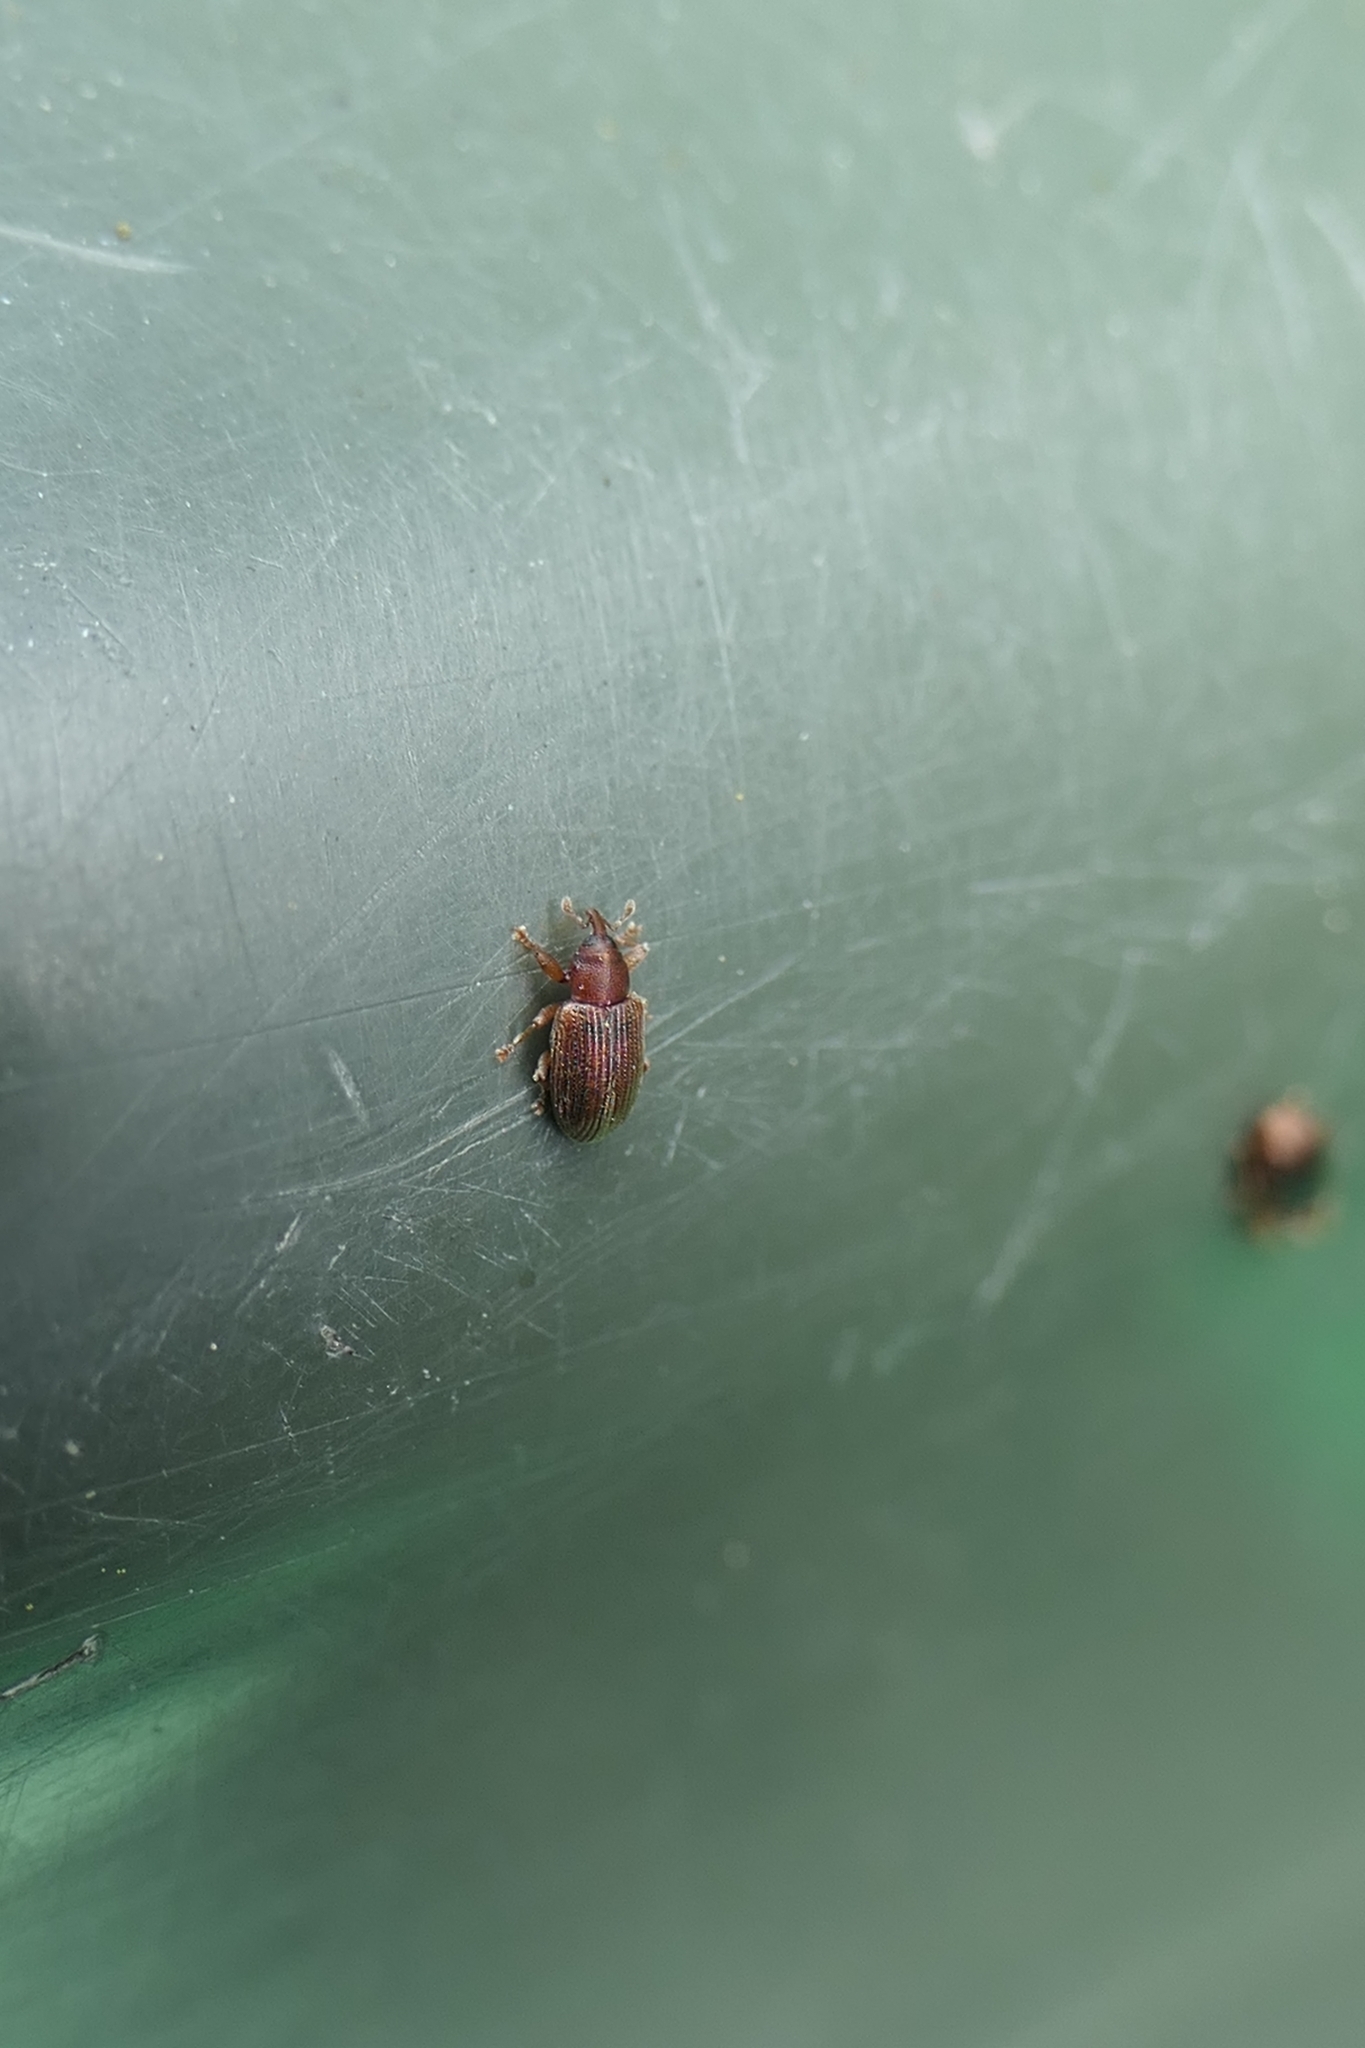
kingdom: Animalia
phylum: Arthropoda
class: Insecta
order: Coleoptera
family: Curculionidae
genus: Aneuma
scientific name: Aneuma
